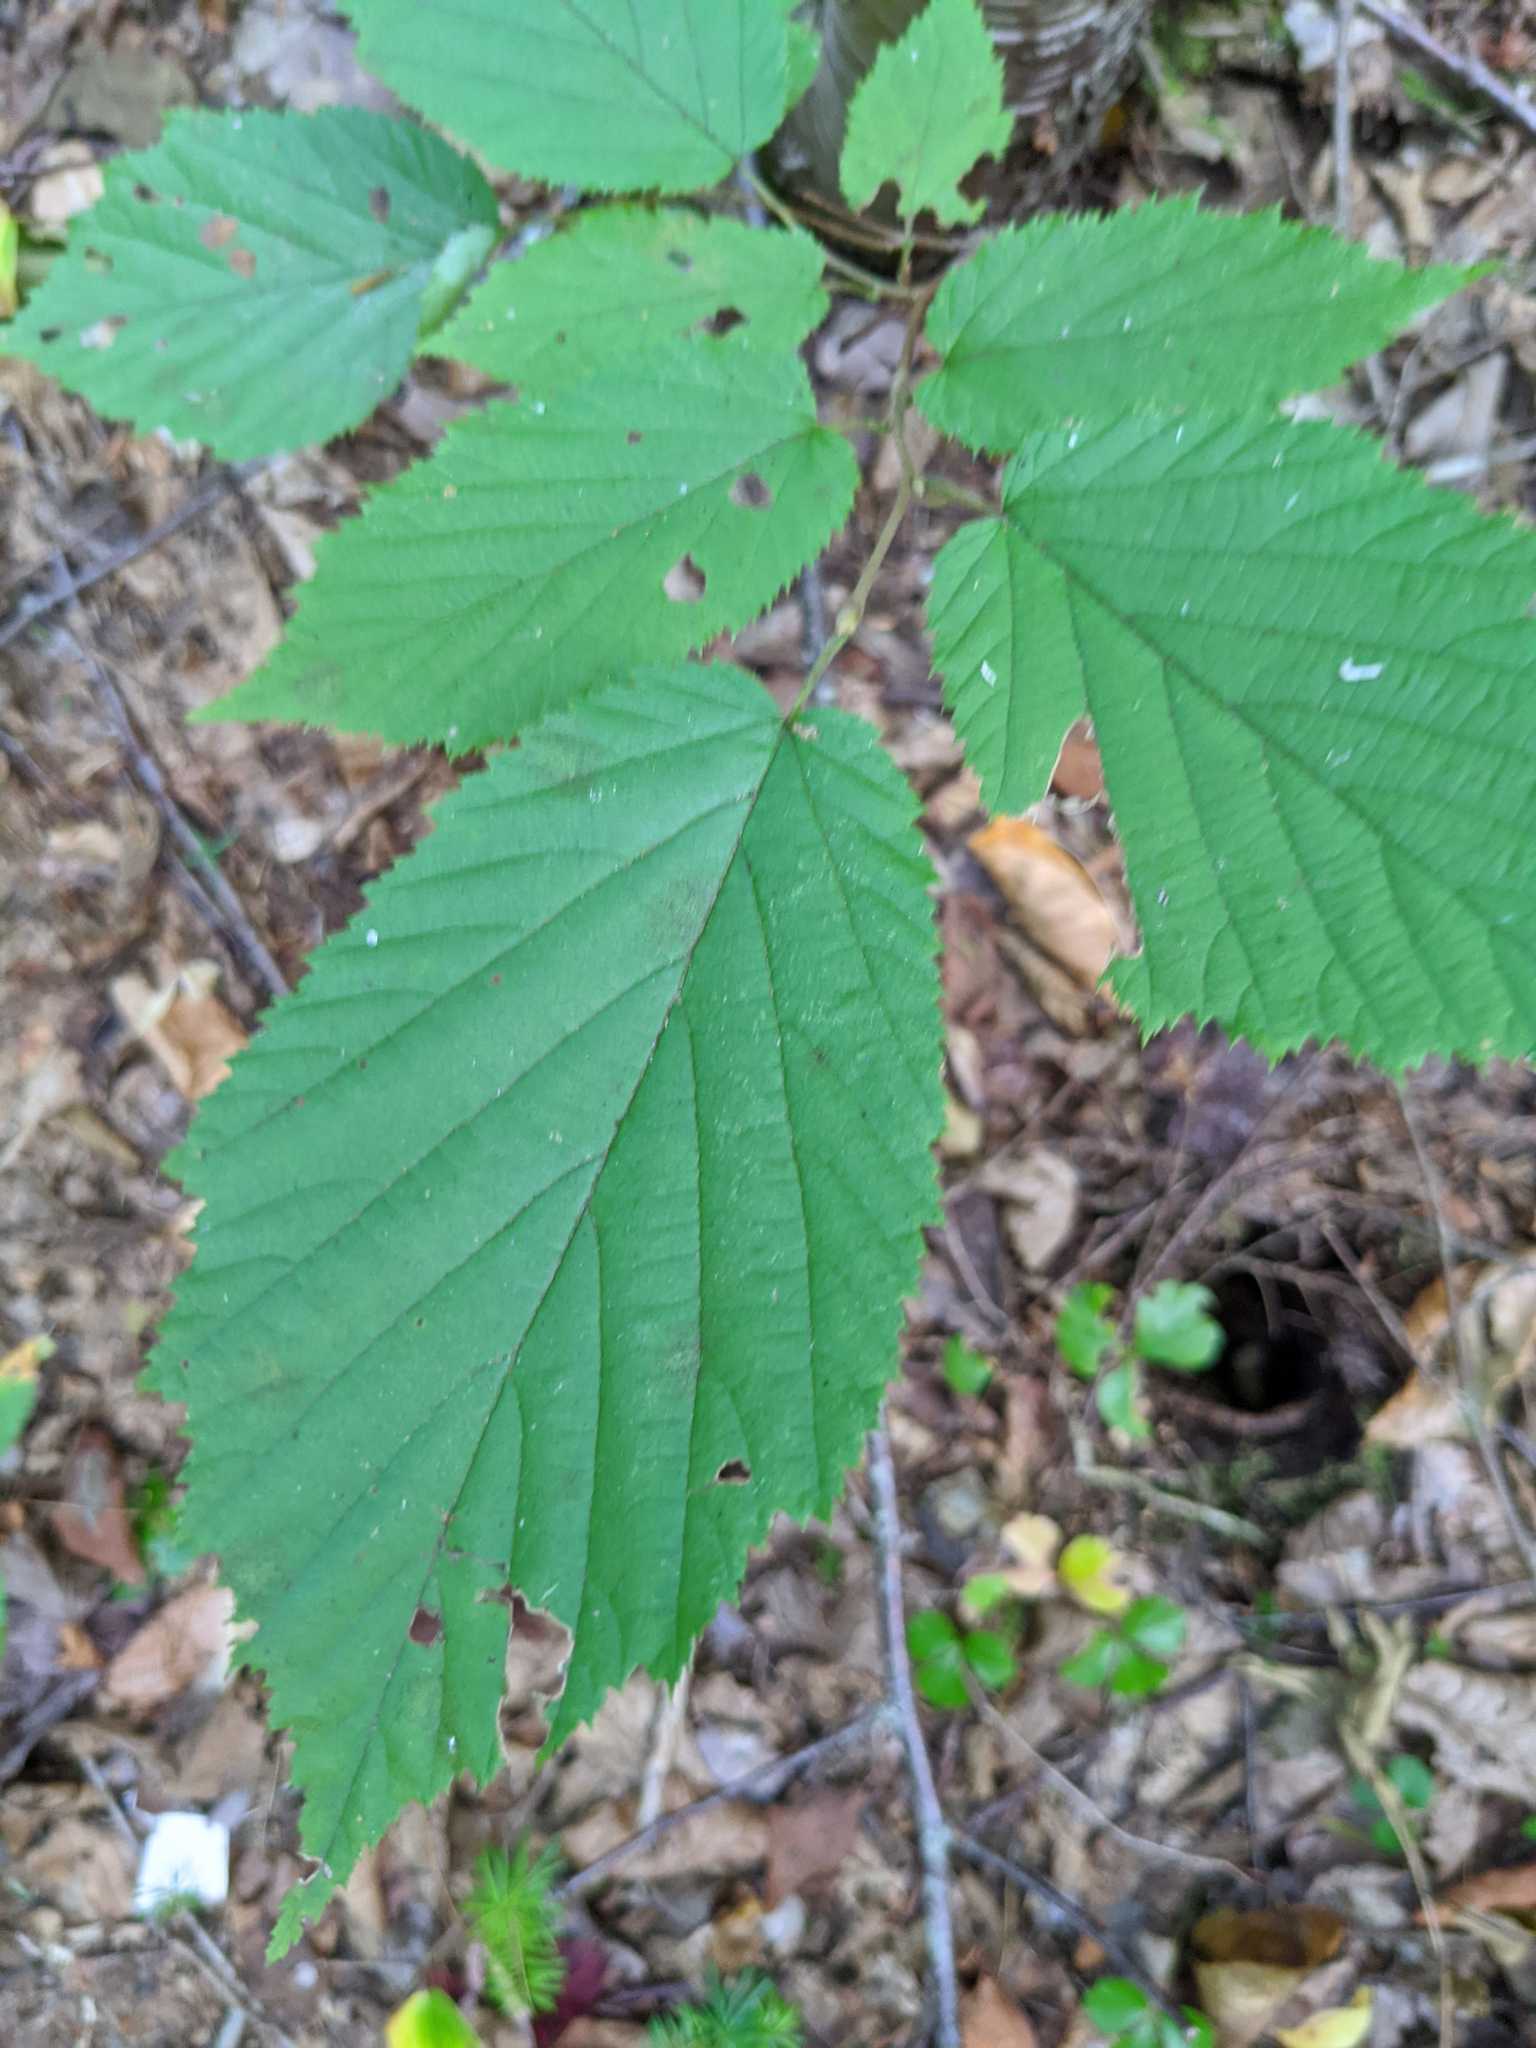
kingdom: Plantae
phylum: Tracheophyta
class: Magnoliopsida
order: Fagales
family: Betulaceae
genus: Corylus
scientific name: Corylus cornuta
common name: Beaked hazel
